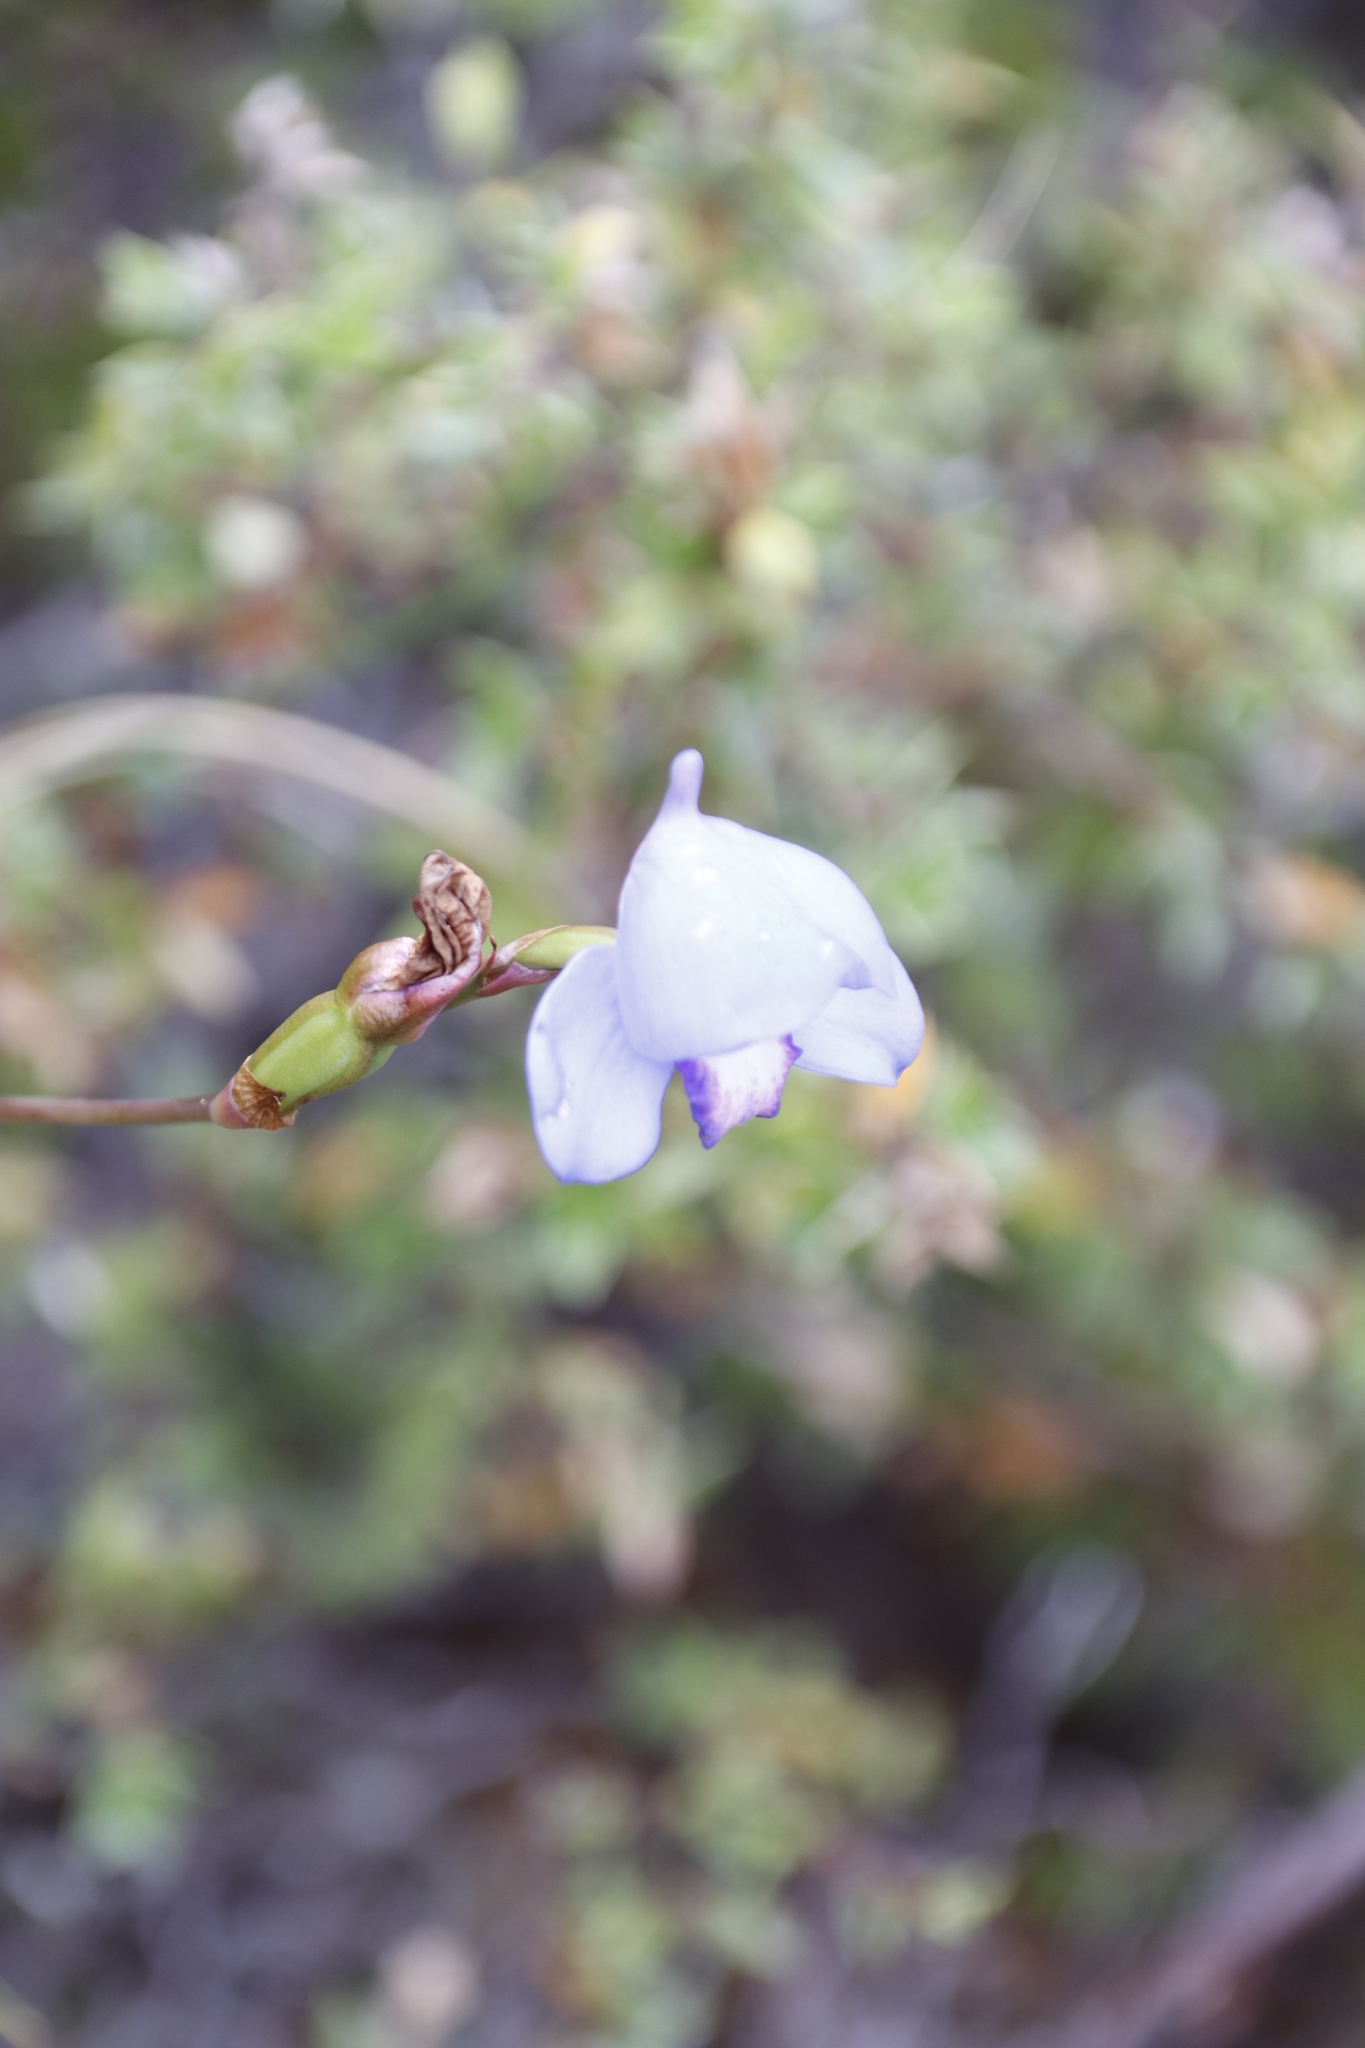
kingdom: Plantae
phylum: Tracheophyta
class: Liliopsida
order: Asparagales
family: Orchidaceae
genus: Disa
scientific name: Disa graminifolia
